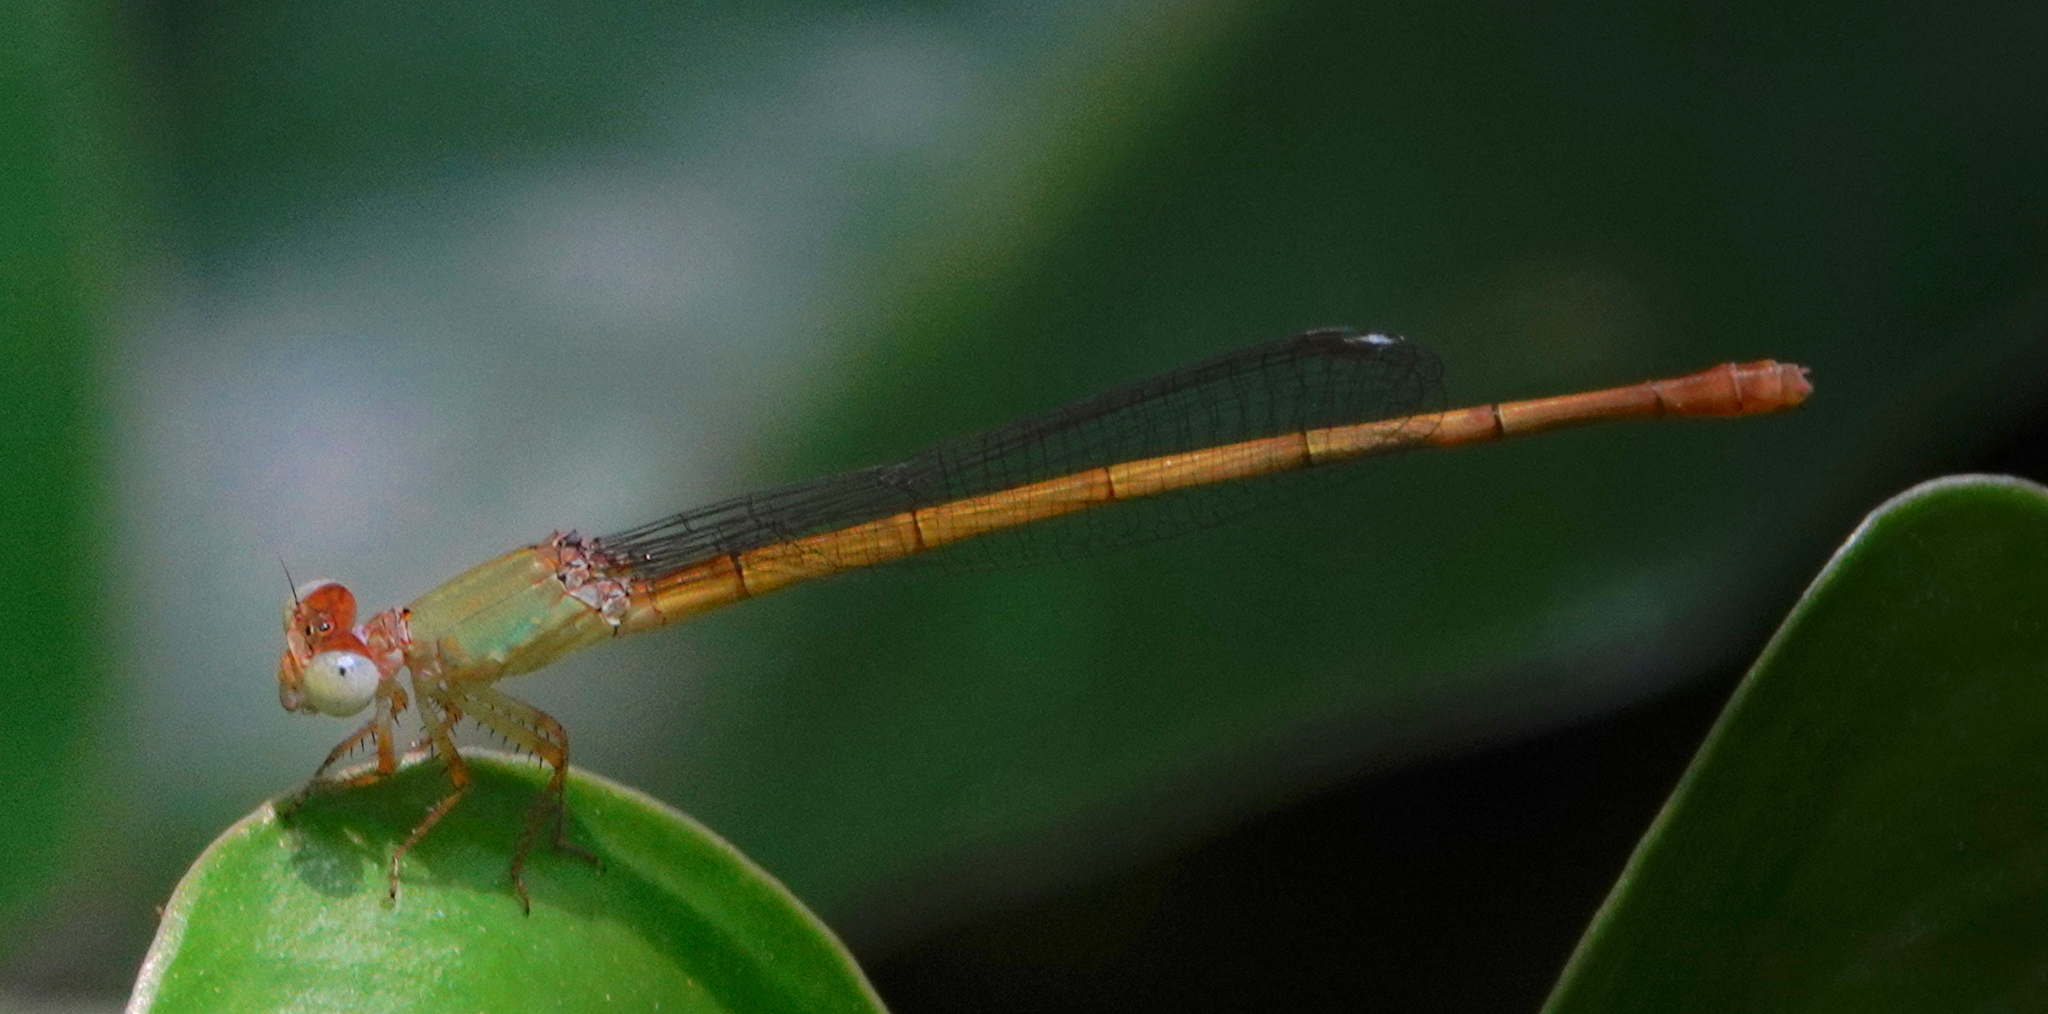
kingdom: Animalia
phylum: Arthropoda
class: Insecta
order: Odonata
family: Coenagrionidae
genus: Ceriagrion
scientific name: Ceriagrion coromandelianum
